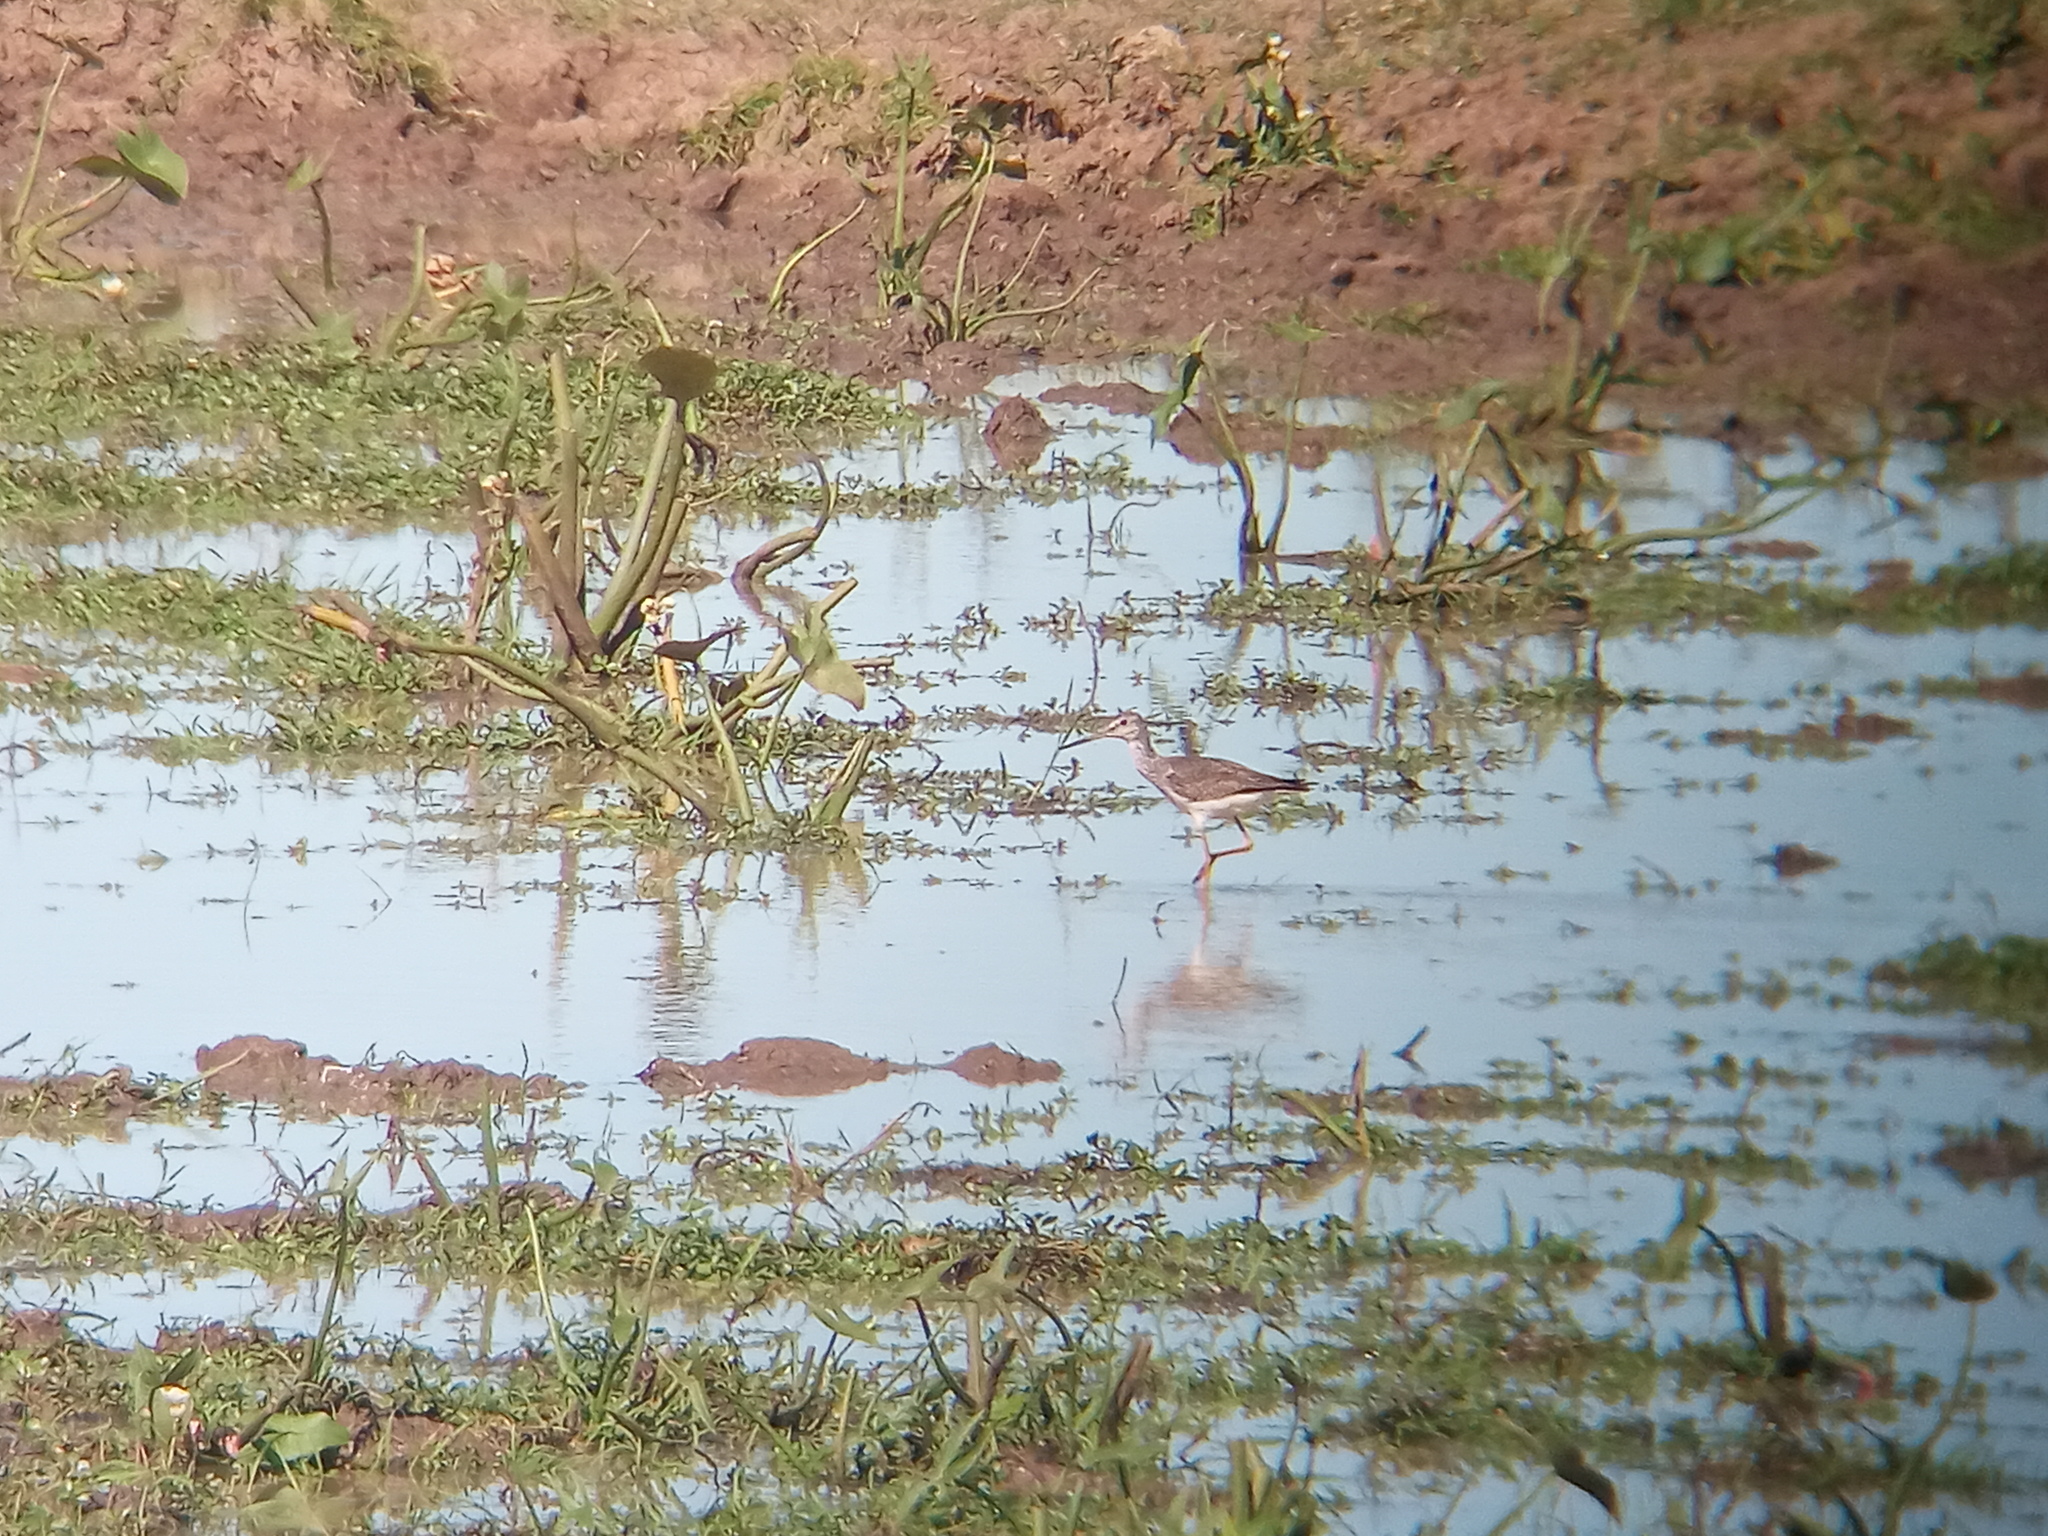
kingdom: Animalia
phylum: Chordata
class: Aves
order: Charadriiformes
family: Scolopacidae
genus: Tringa
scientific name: Tringa melanoleuca
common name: Greater yellowlegs
